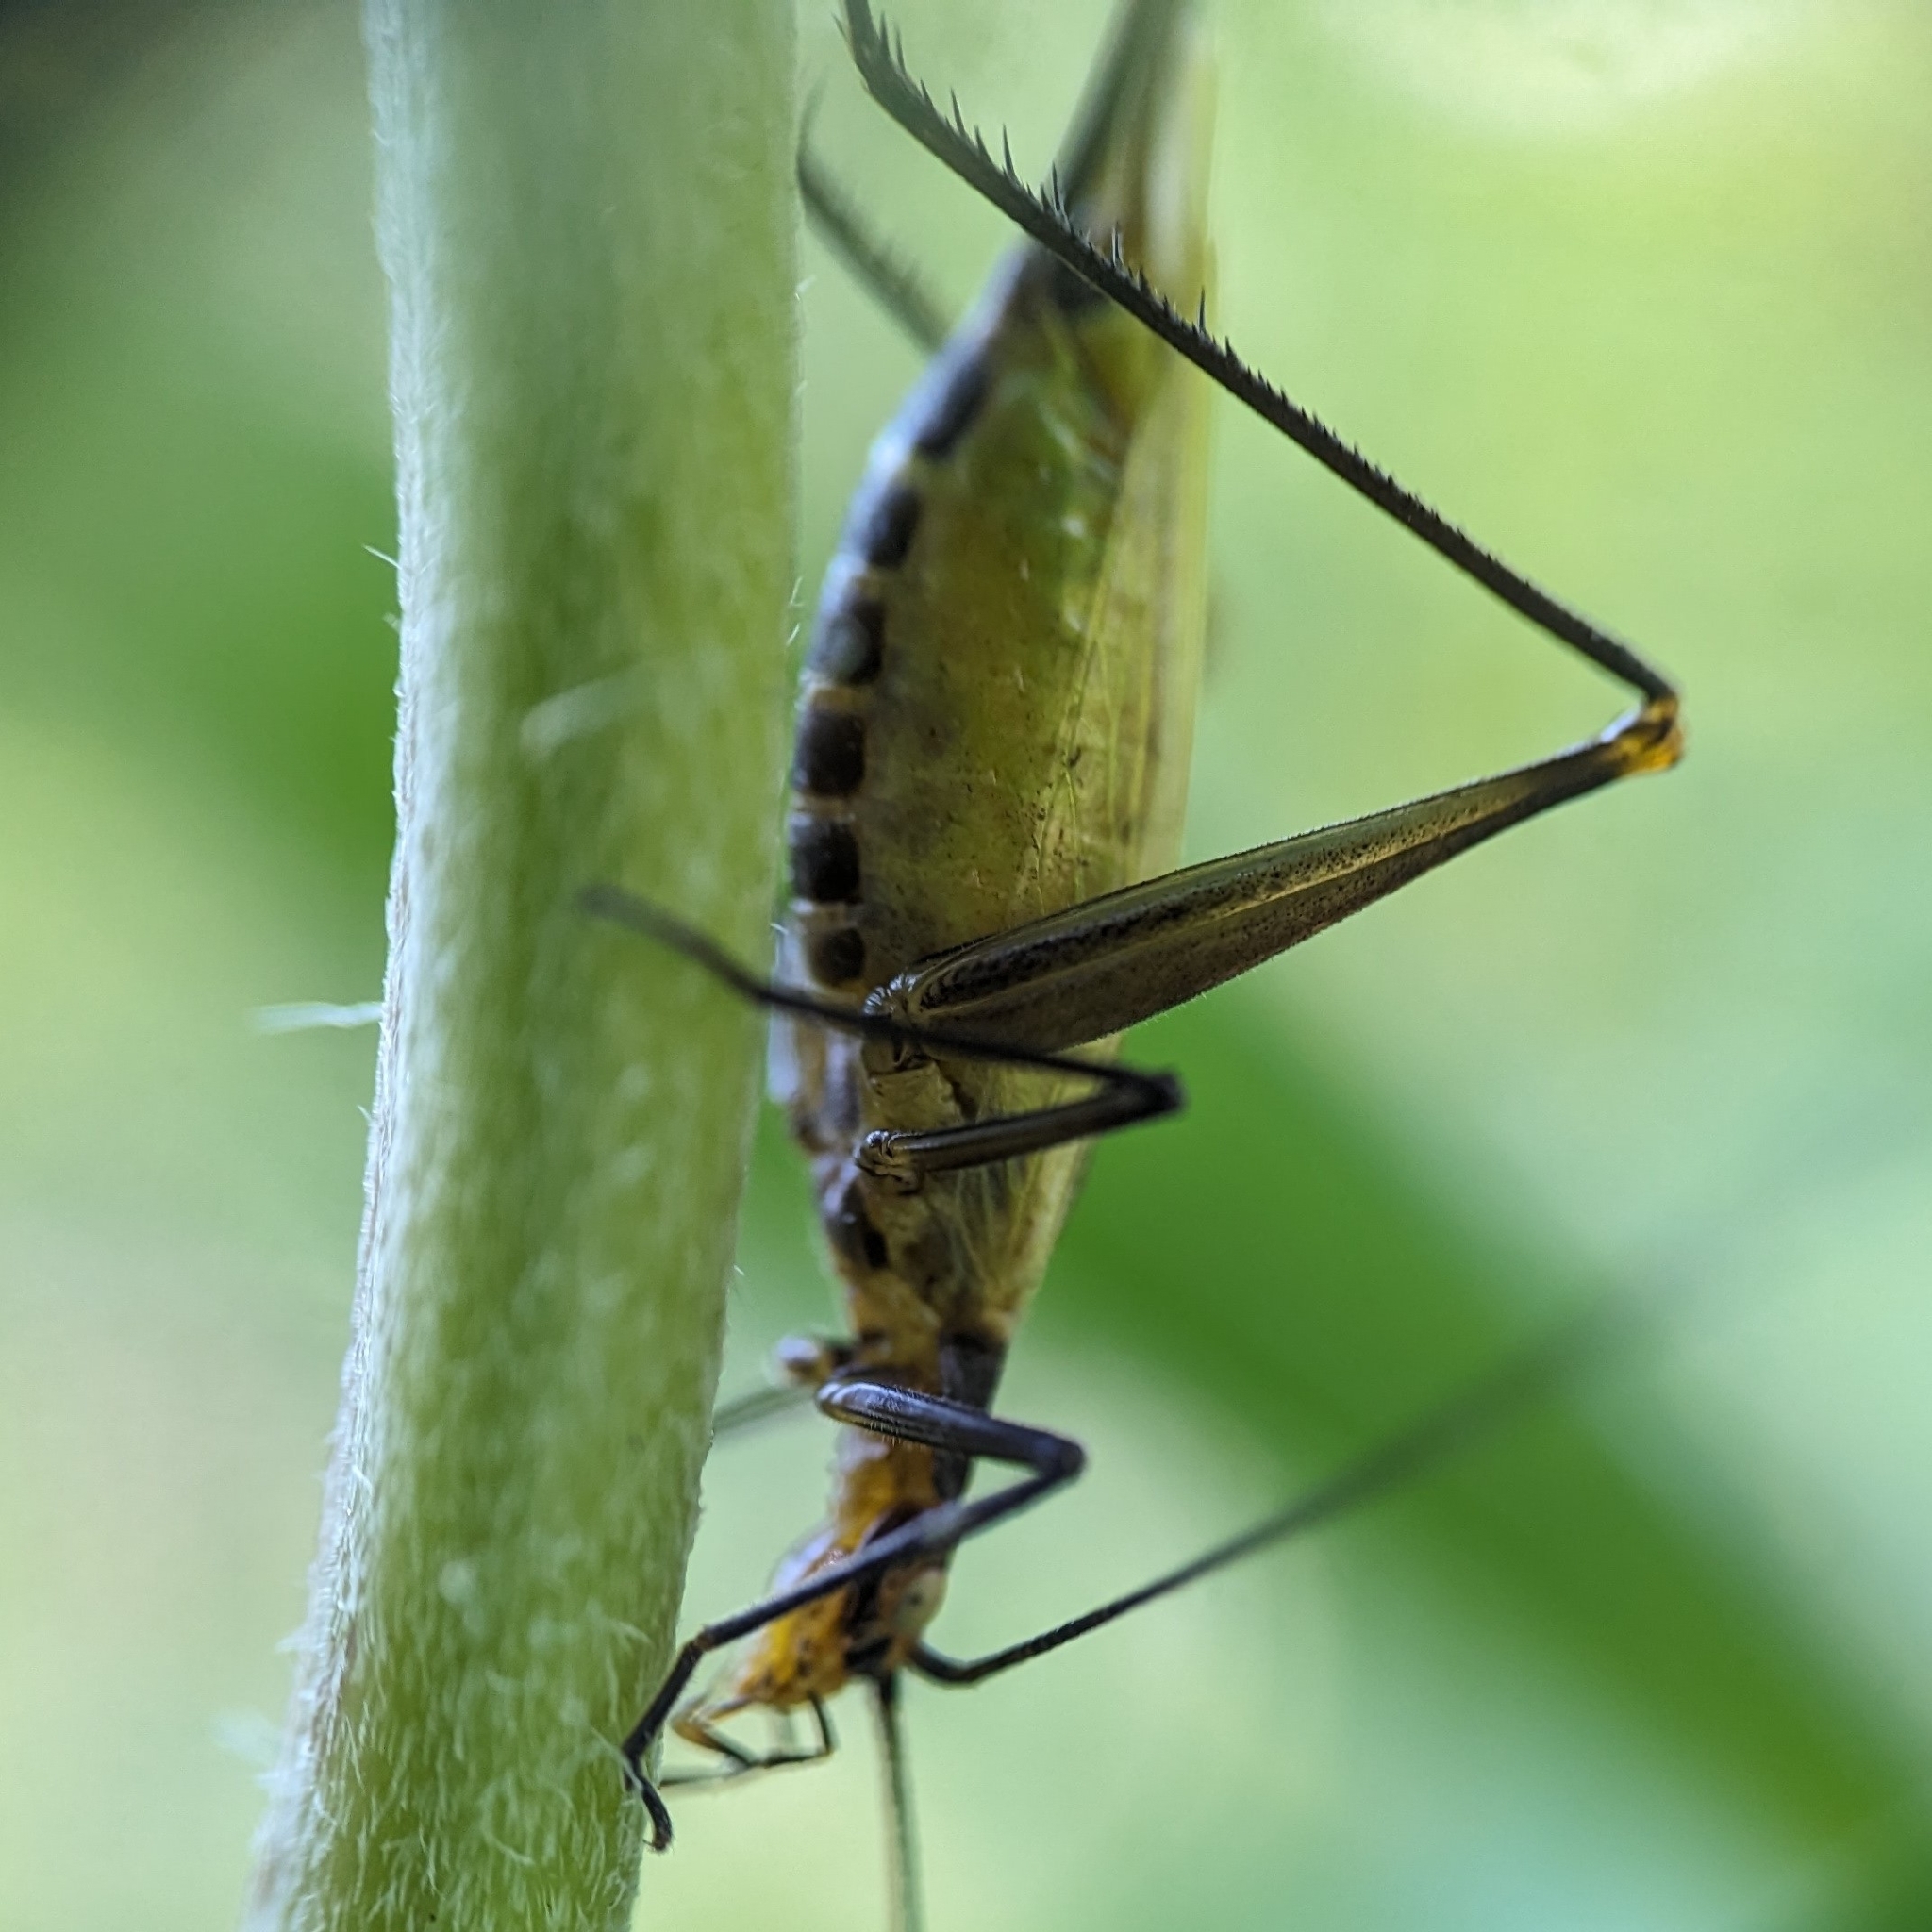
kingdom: Animalia
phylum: Arthropoda
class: Insecta
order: Orthoptera
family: Gryllidae
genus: Oecanthus
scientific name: Oecanthus nigricornis
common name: Black-horned tree cricket
